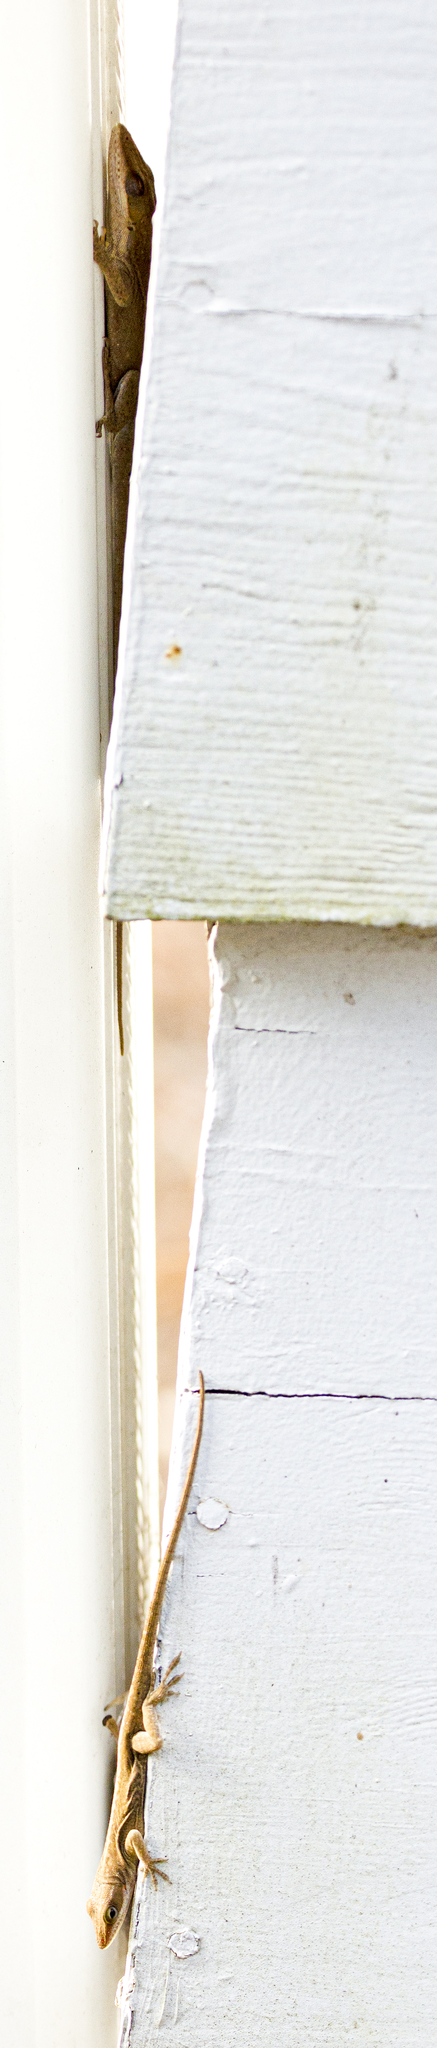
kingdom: Animalia
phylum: Chordata
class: Squamata
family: Dactyloidae
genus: Anolis
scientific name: Anolis carolinensis
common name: Green anole
